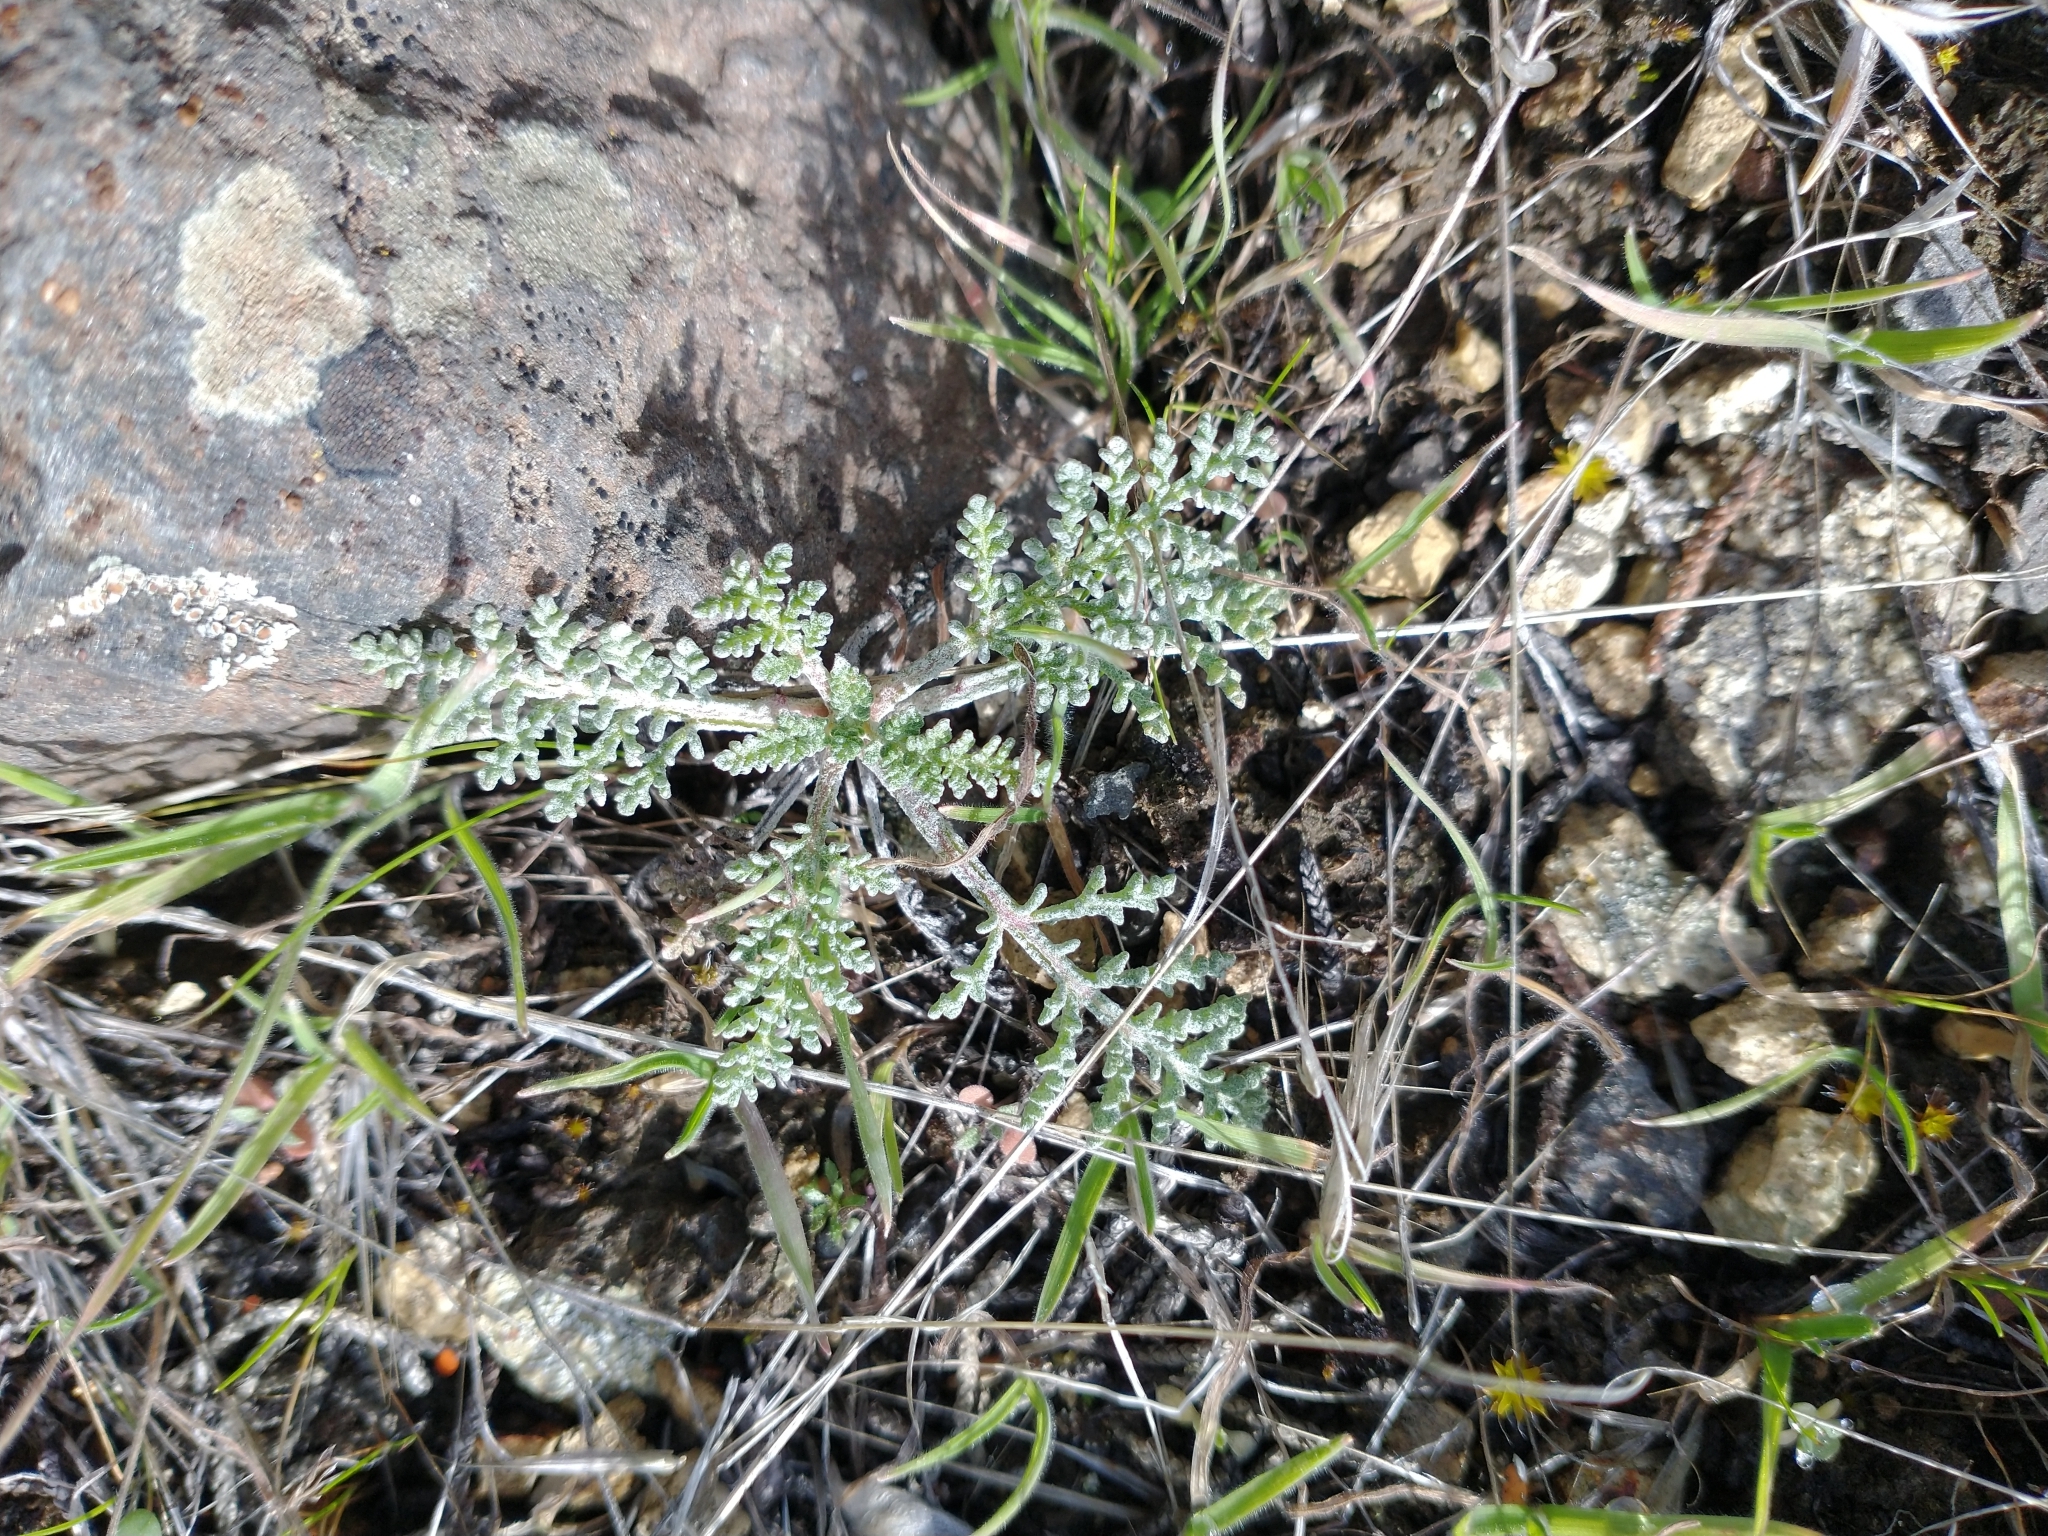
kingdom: Plantae
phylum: Tracheophyta
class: Magnoliopsida
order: Asterales
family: Asteraceae
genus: Chaenactis
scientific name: Chaenactis douglasii
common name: Hoary pincushion
